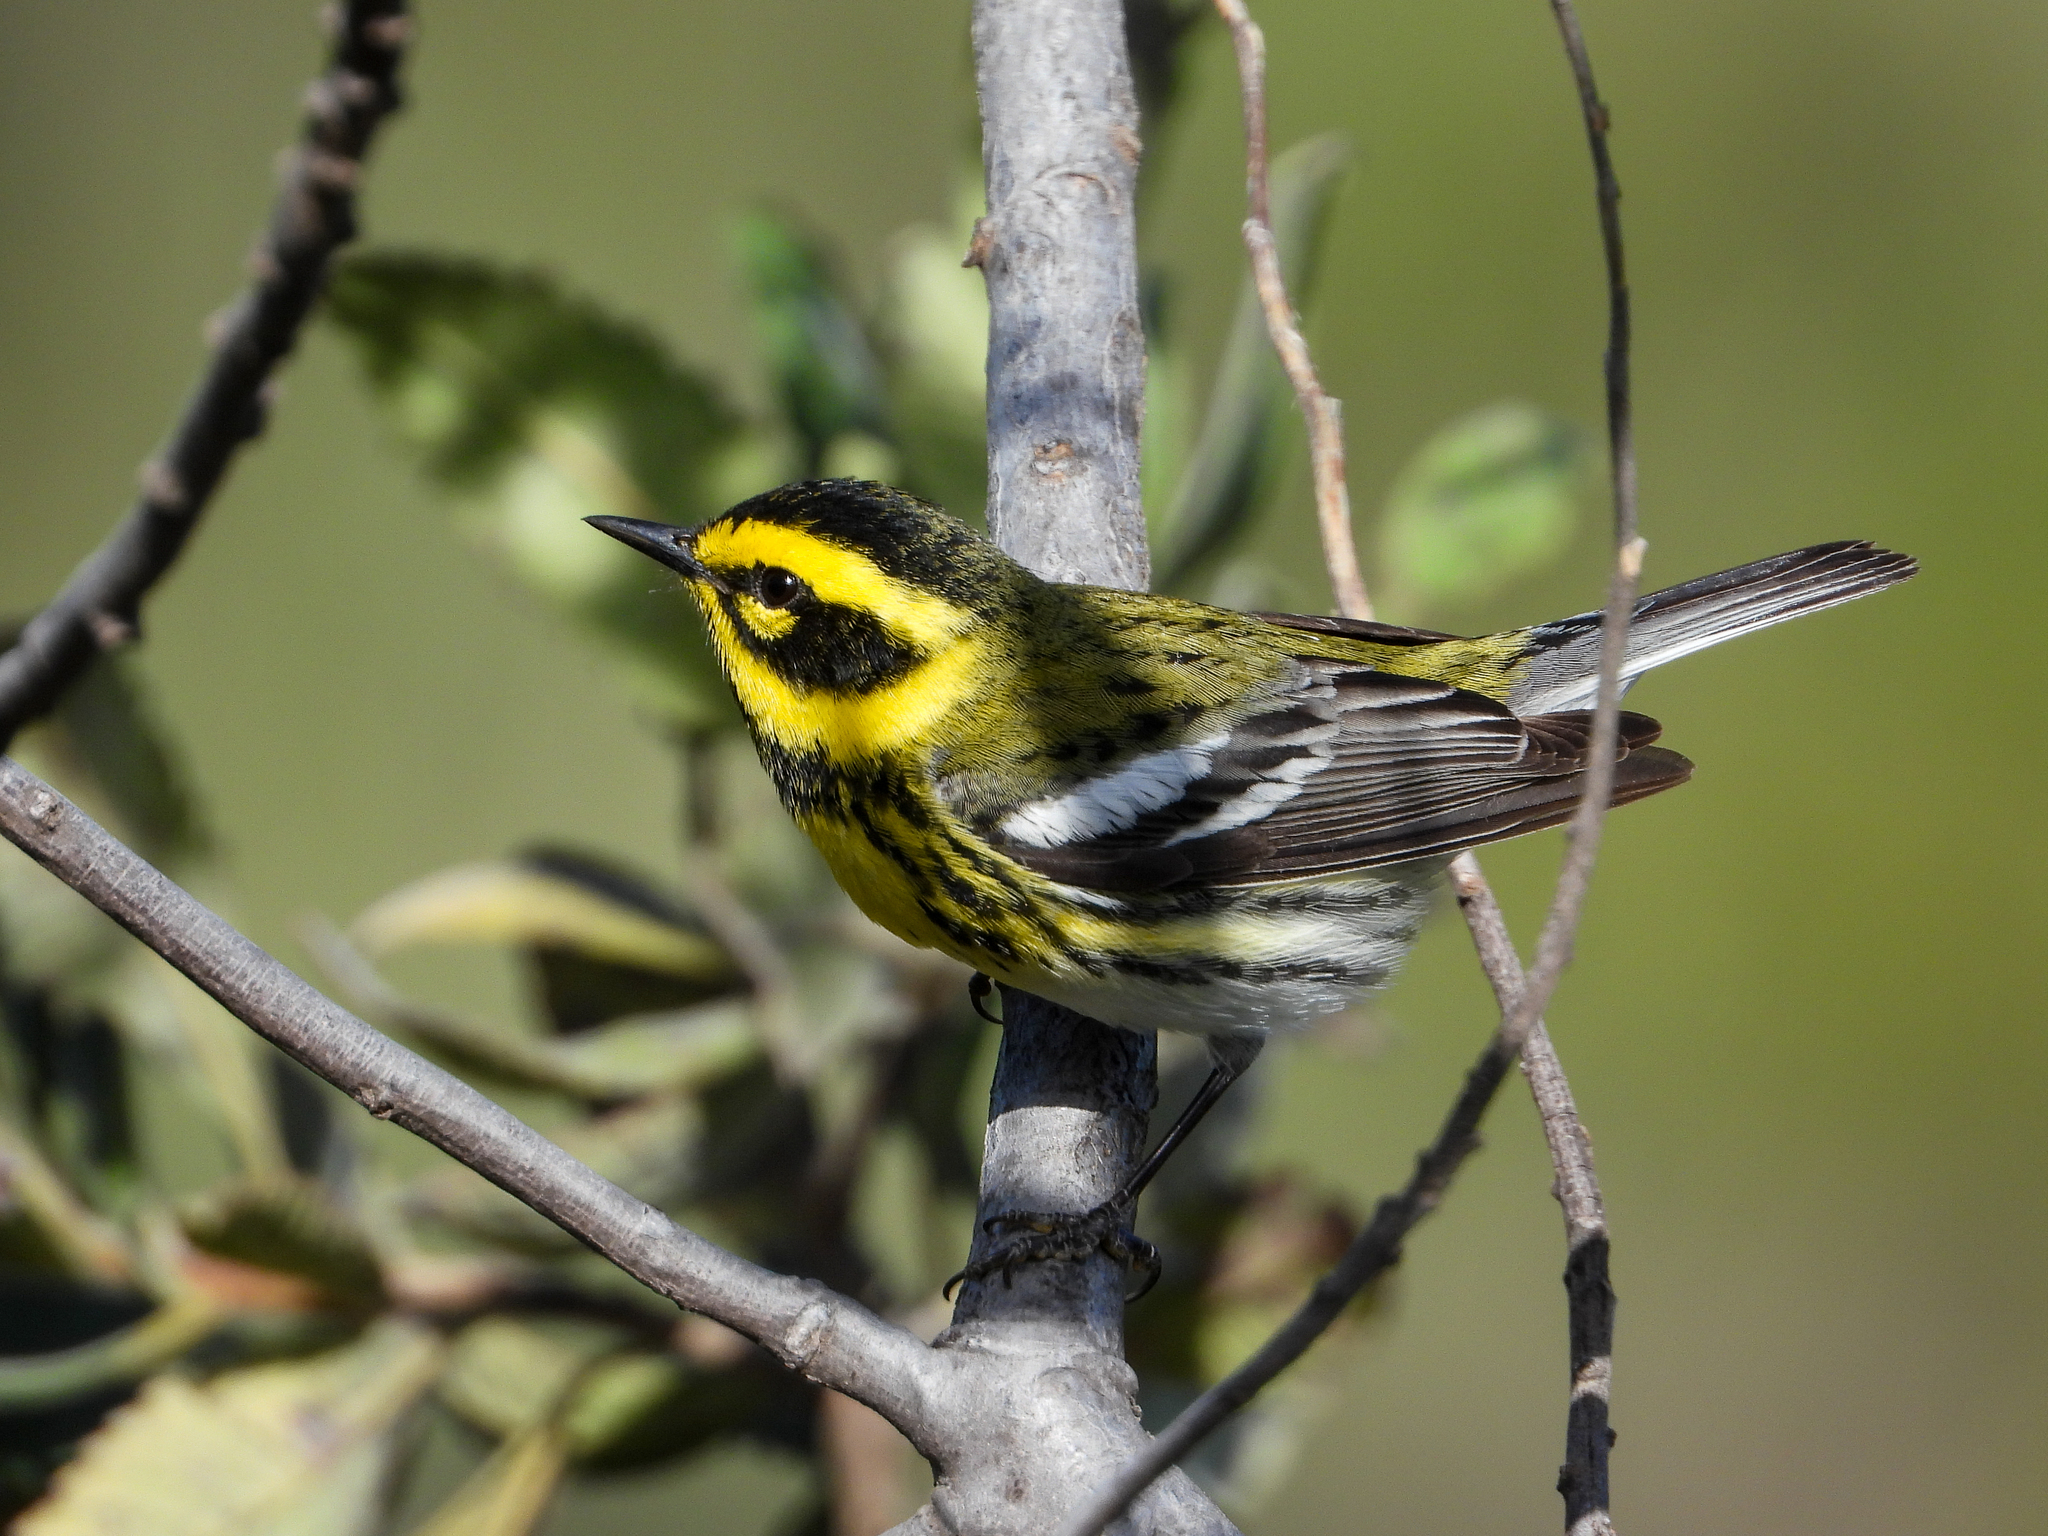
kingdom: Animalia
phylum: Chordata
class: Aves
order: Passeriformes
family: Parulidae
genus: Setophaga
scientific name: Setophaga townsendi
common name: Townsend's warbler
